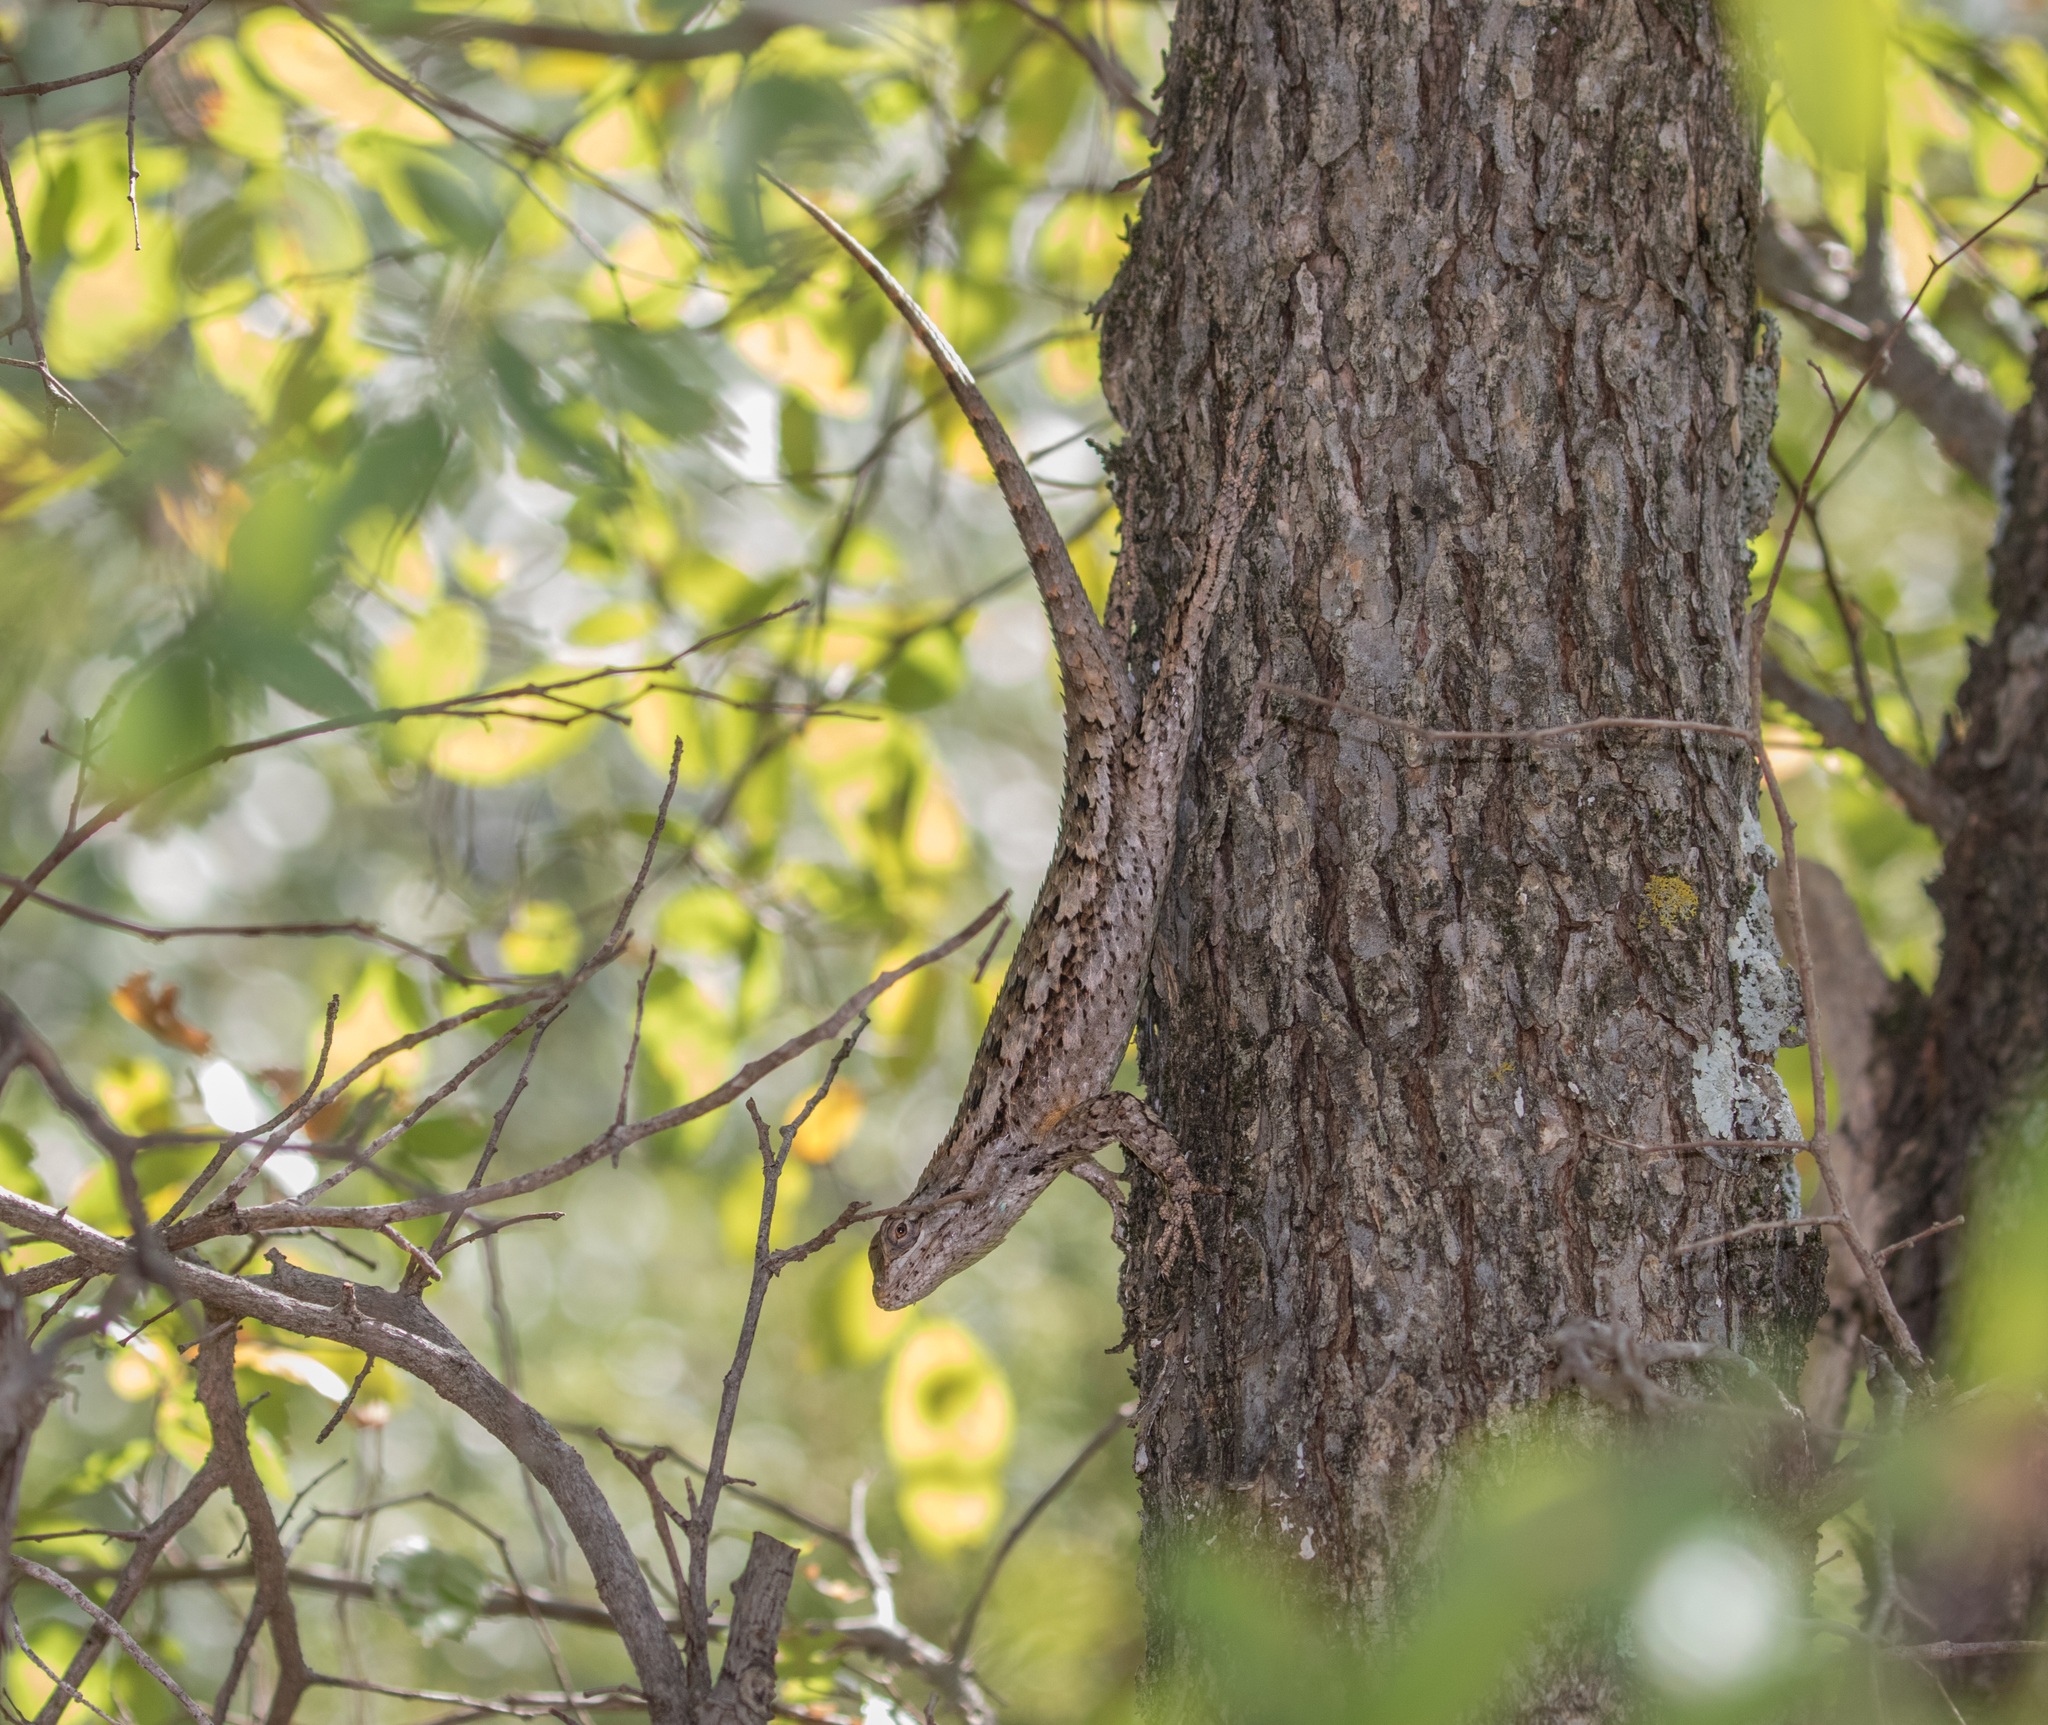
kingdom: Animalia
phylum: Chordata
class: Squamata
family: Phrynosomatidae
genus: Sceloporus
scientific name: Sceloporus olivaceus
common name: Texas spiny lizard
